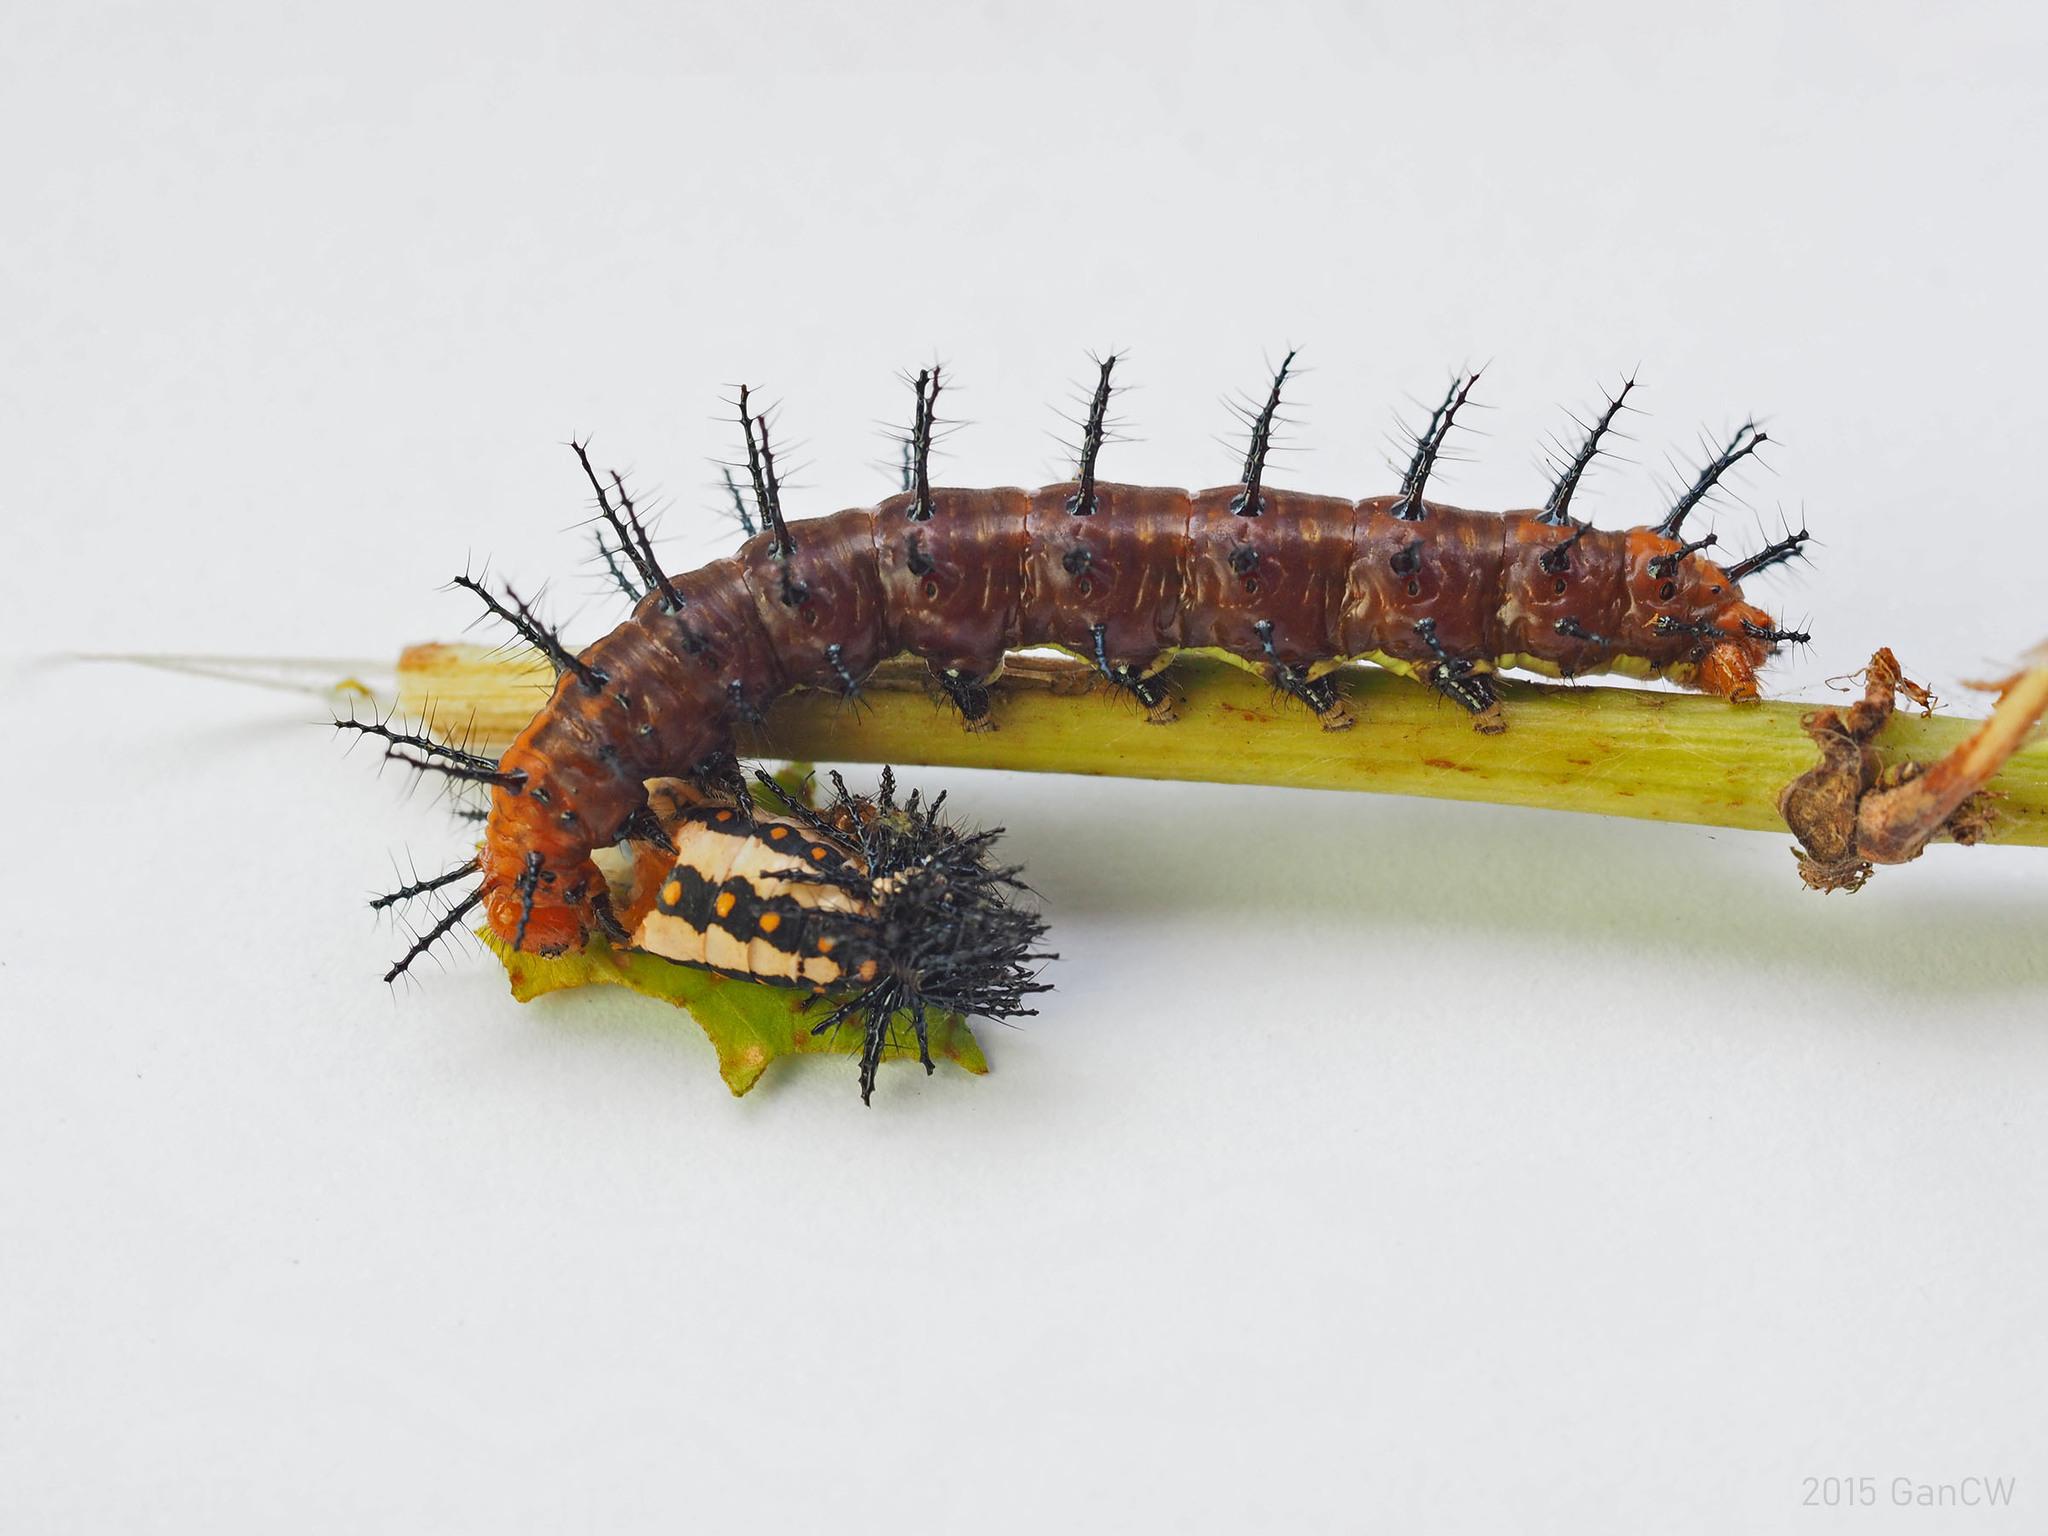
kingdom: Animalia
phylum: Arthropoda
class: Insecta
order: Lepidoptera
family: Nymphalidae
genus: Acraea
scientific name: Acraea terpsicore
